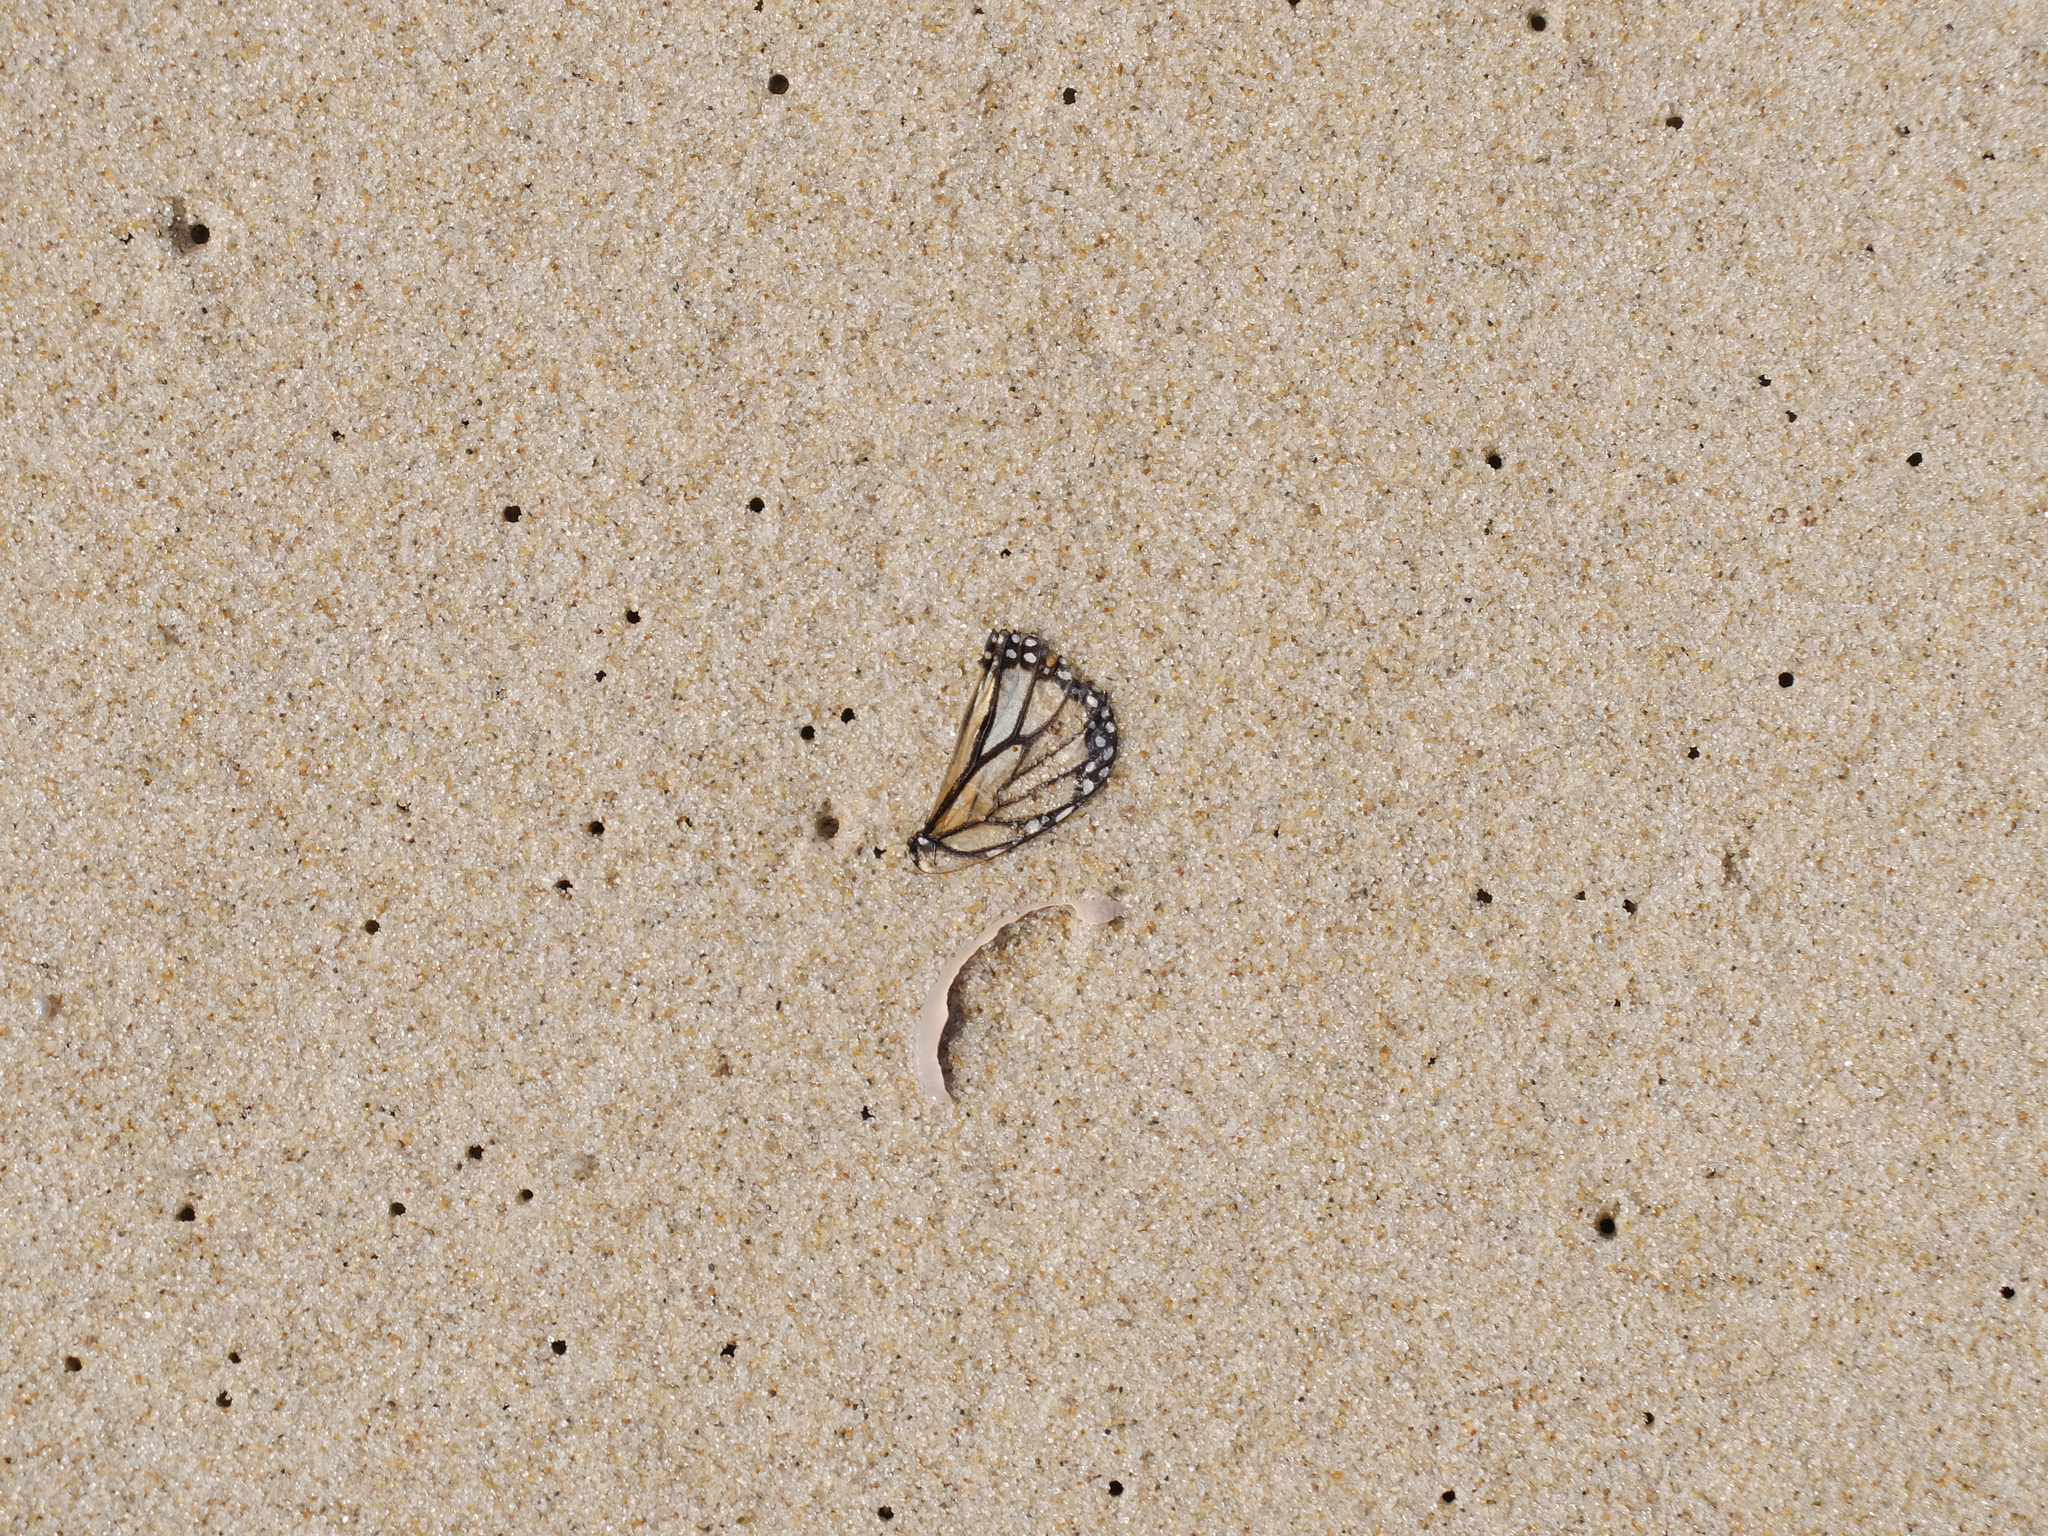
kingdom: Animalia
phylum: Arthropoda
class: Insecta
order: Lepidoptera
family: Nymphalidae
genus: Danaus
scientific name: Danaus plexippus
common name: Monarch
